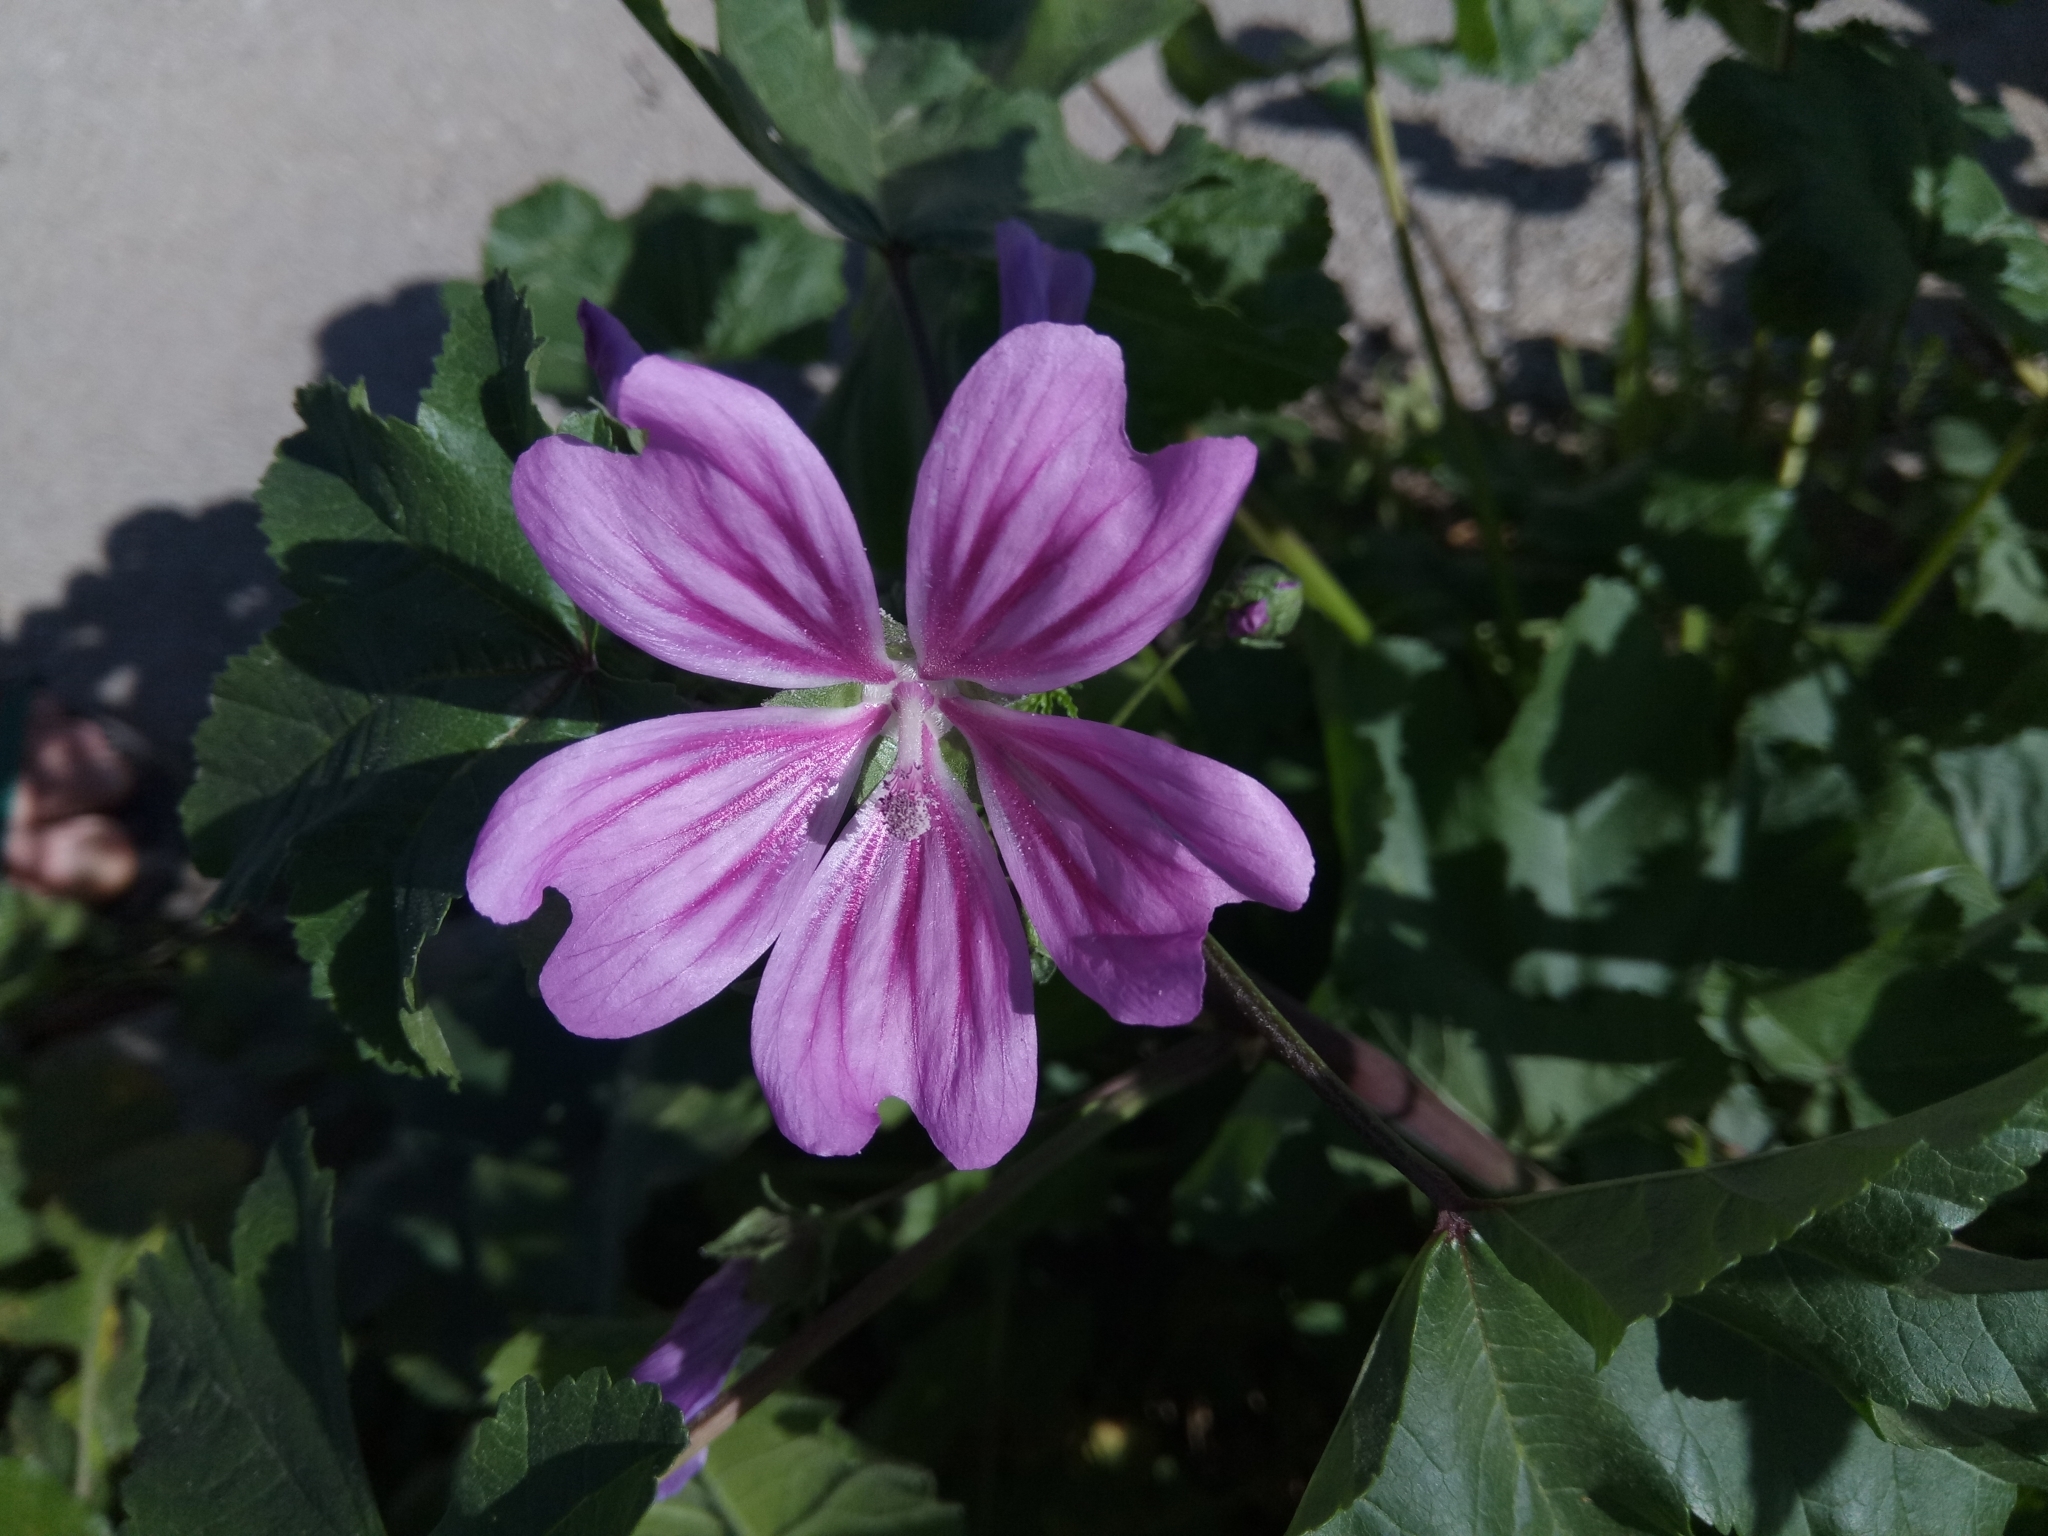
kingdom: Plantae
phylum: Tracheophyta
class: Magnoliopsida
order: Malvales
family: Malvaceae
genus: Malva
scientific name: Malva sylvestris
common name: Common mallow
